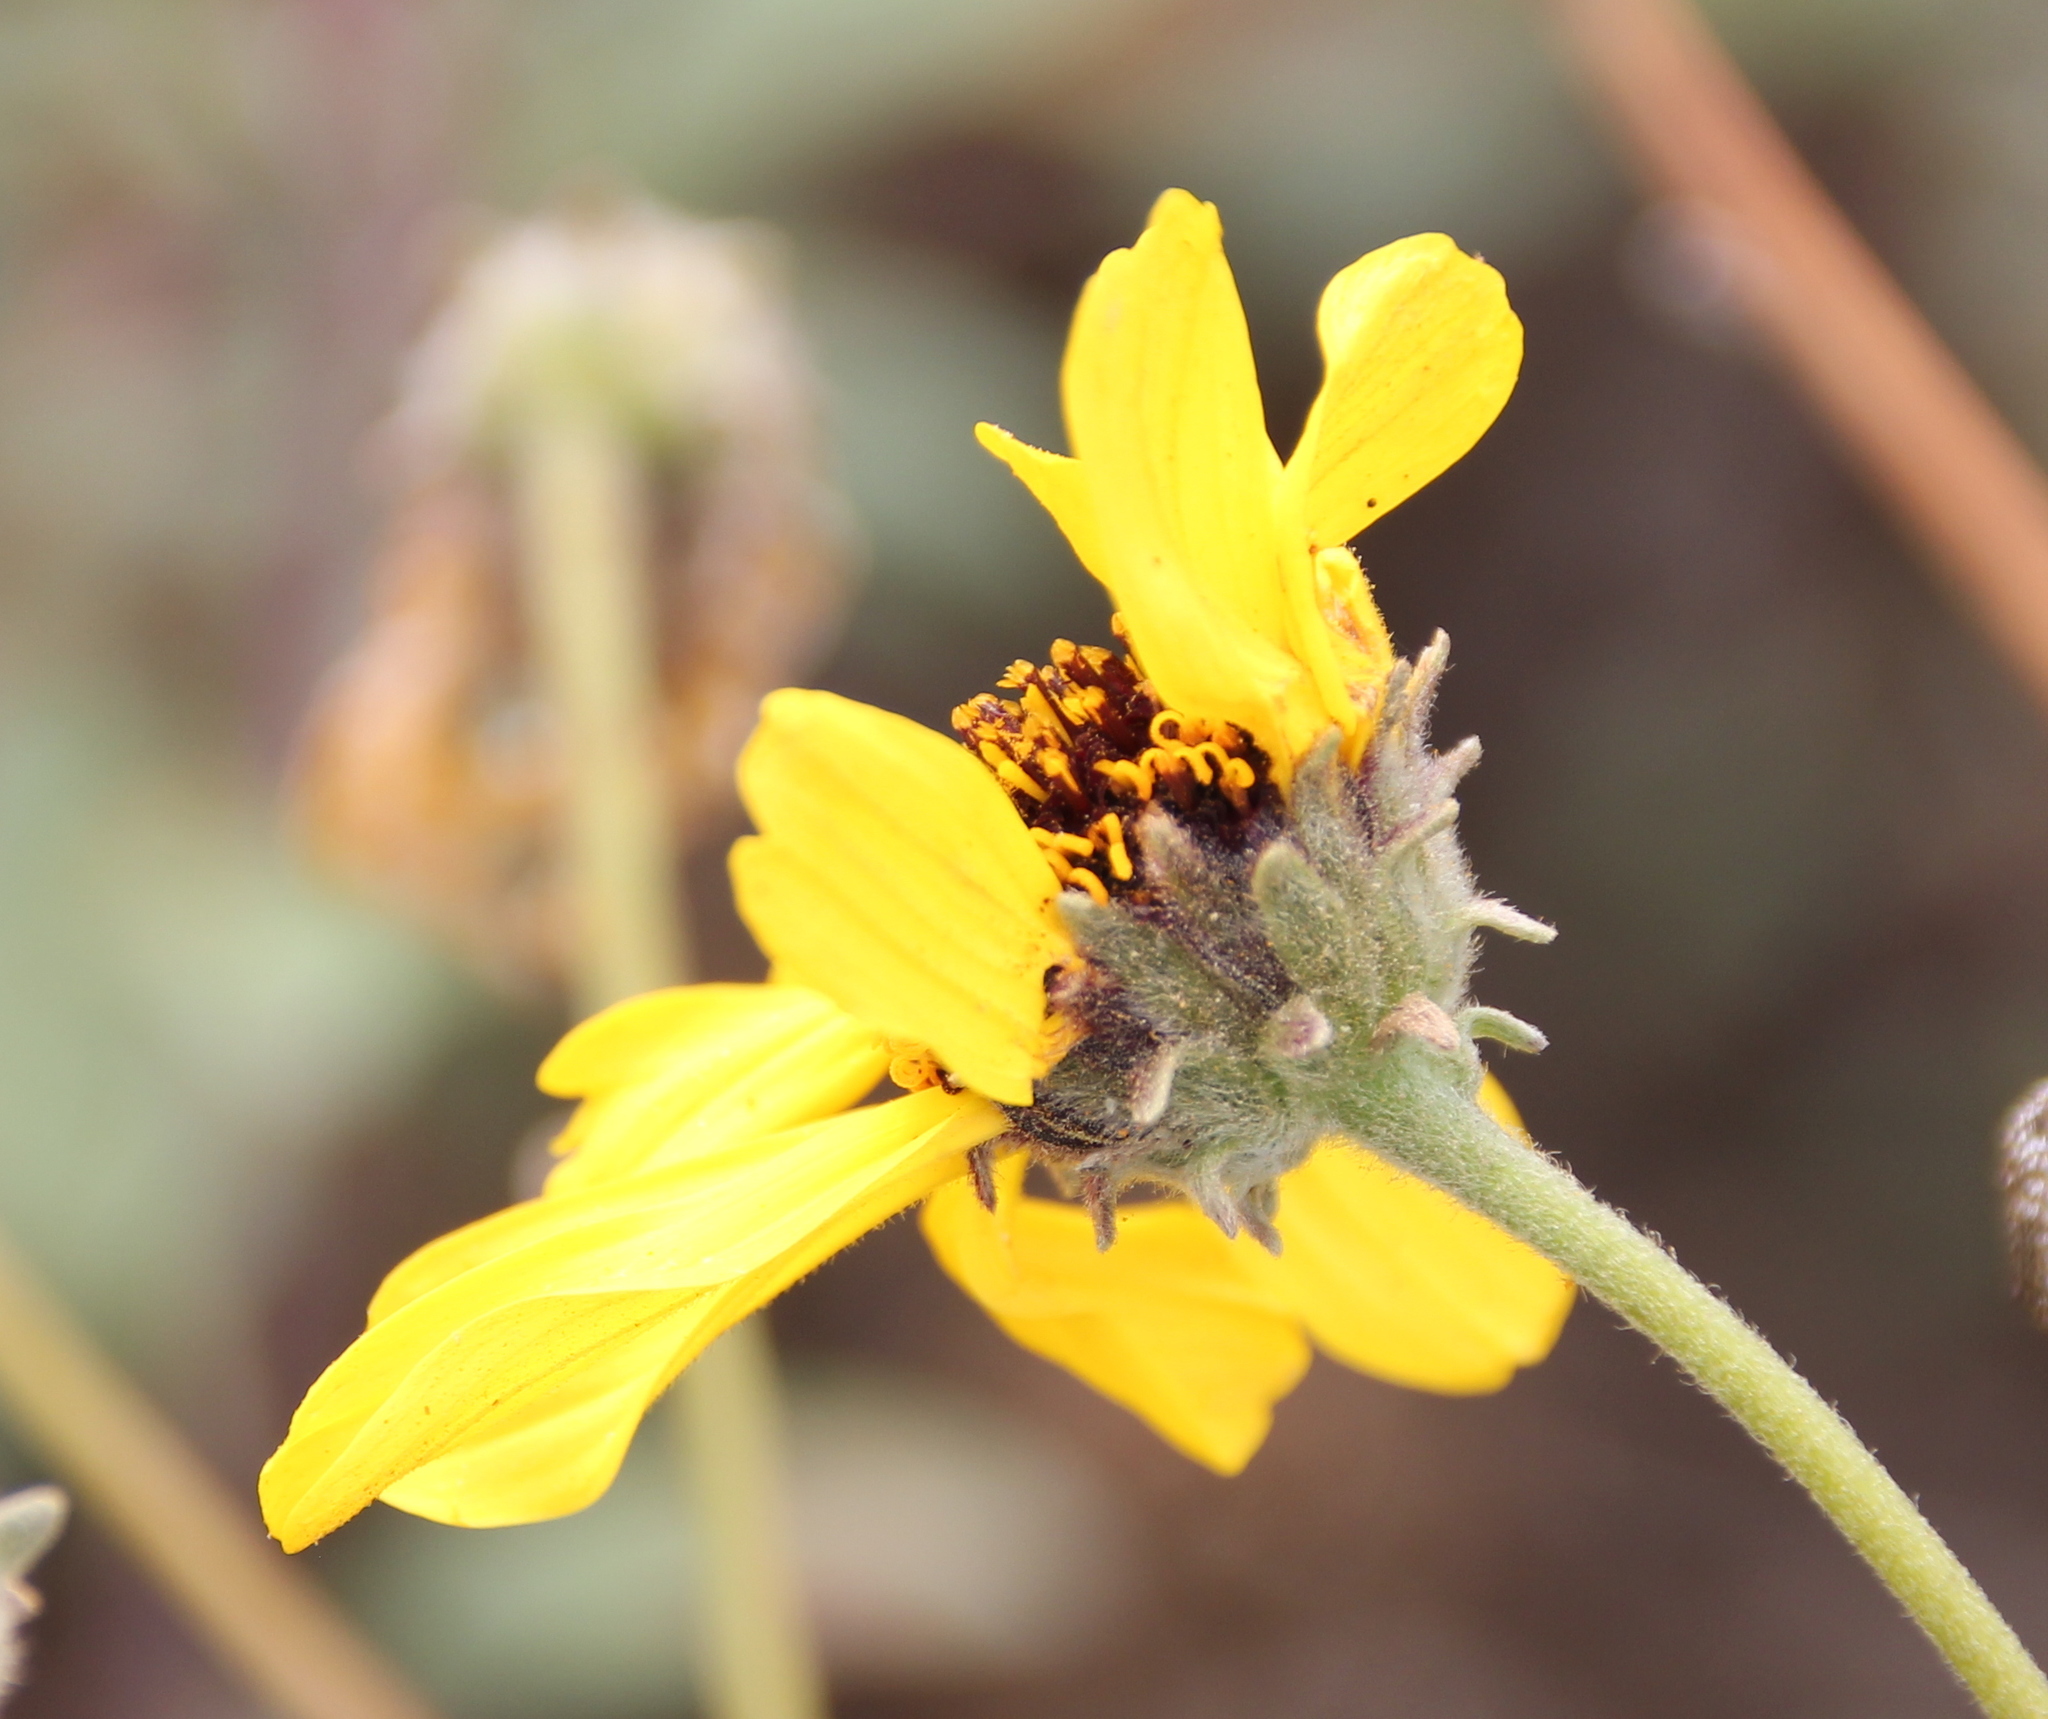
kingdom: Plantae
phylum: Tracheophyta
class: Magnoliopsida
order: Asterales
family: Asteraceae
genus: Encelia
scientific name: Encelia californica
